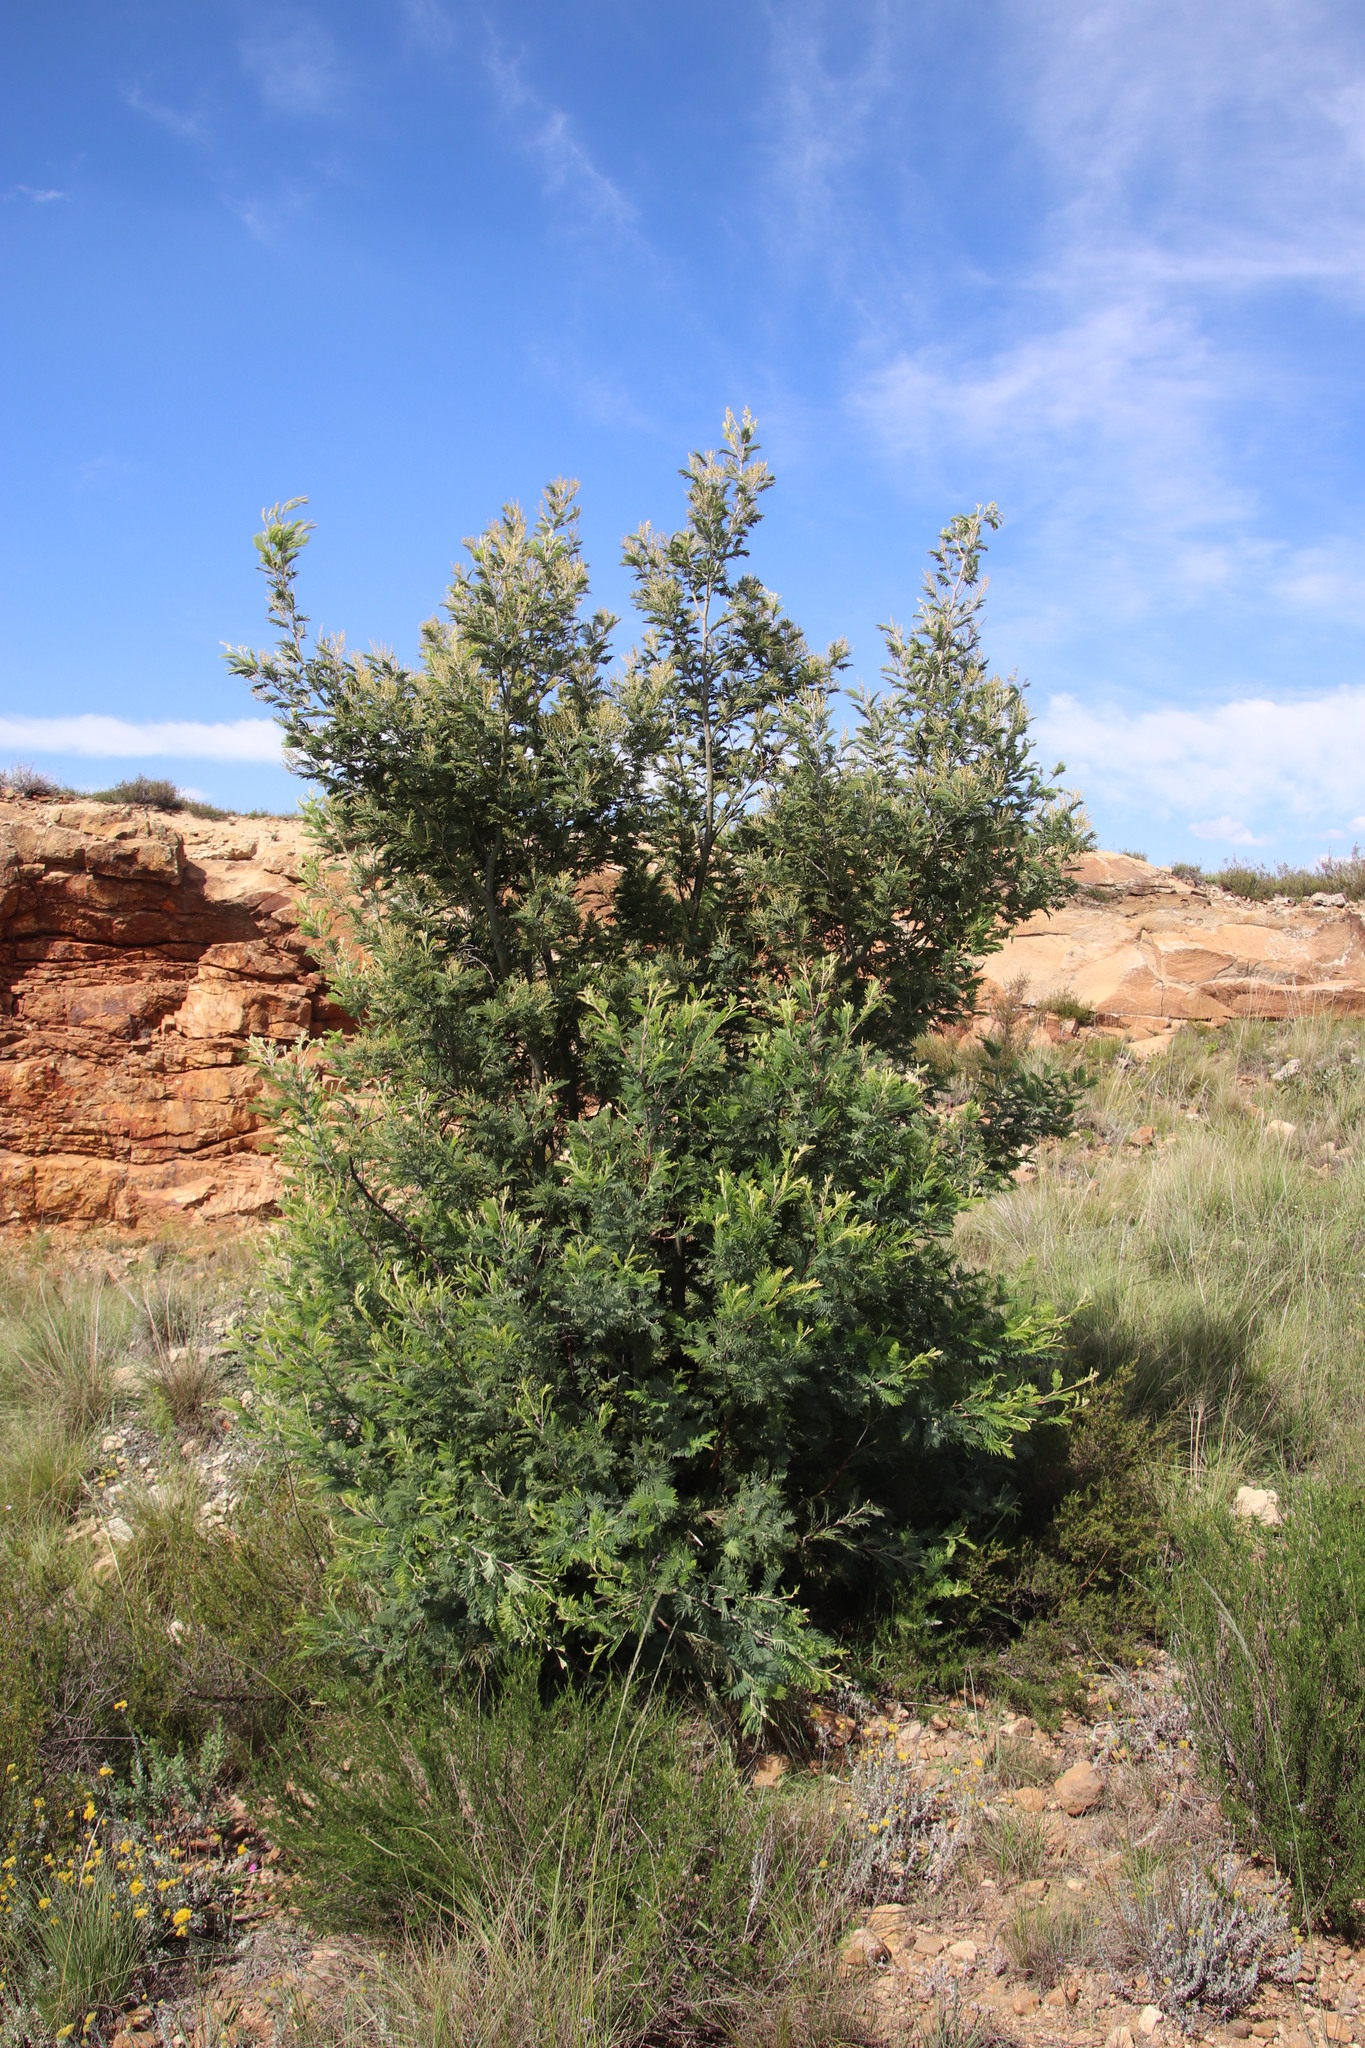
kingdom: Plantae
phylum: Tracheophyta
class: Magnoliopsida
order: Fabales
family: Fabaceae
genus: Acacia
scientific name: Acacia dealbata
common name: Silver wattle
